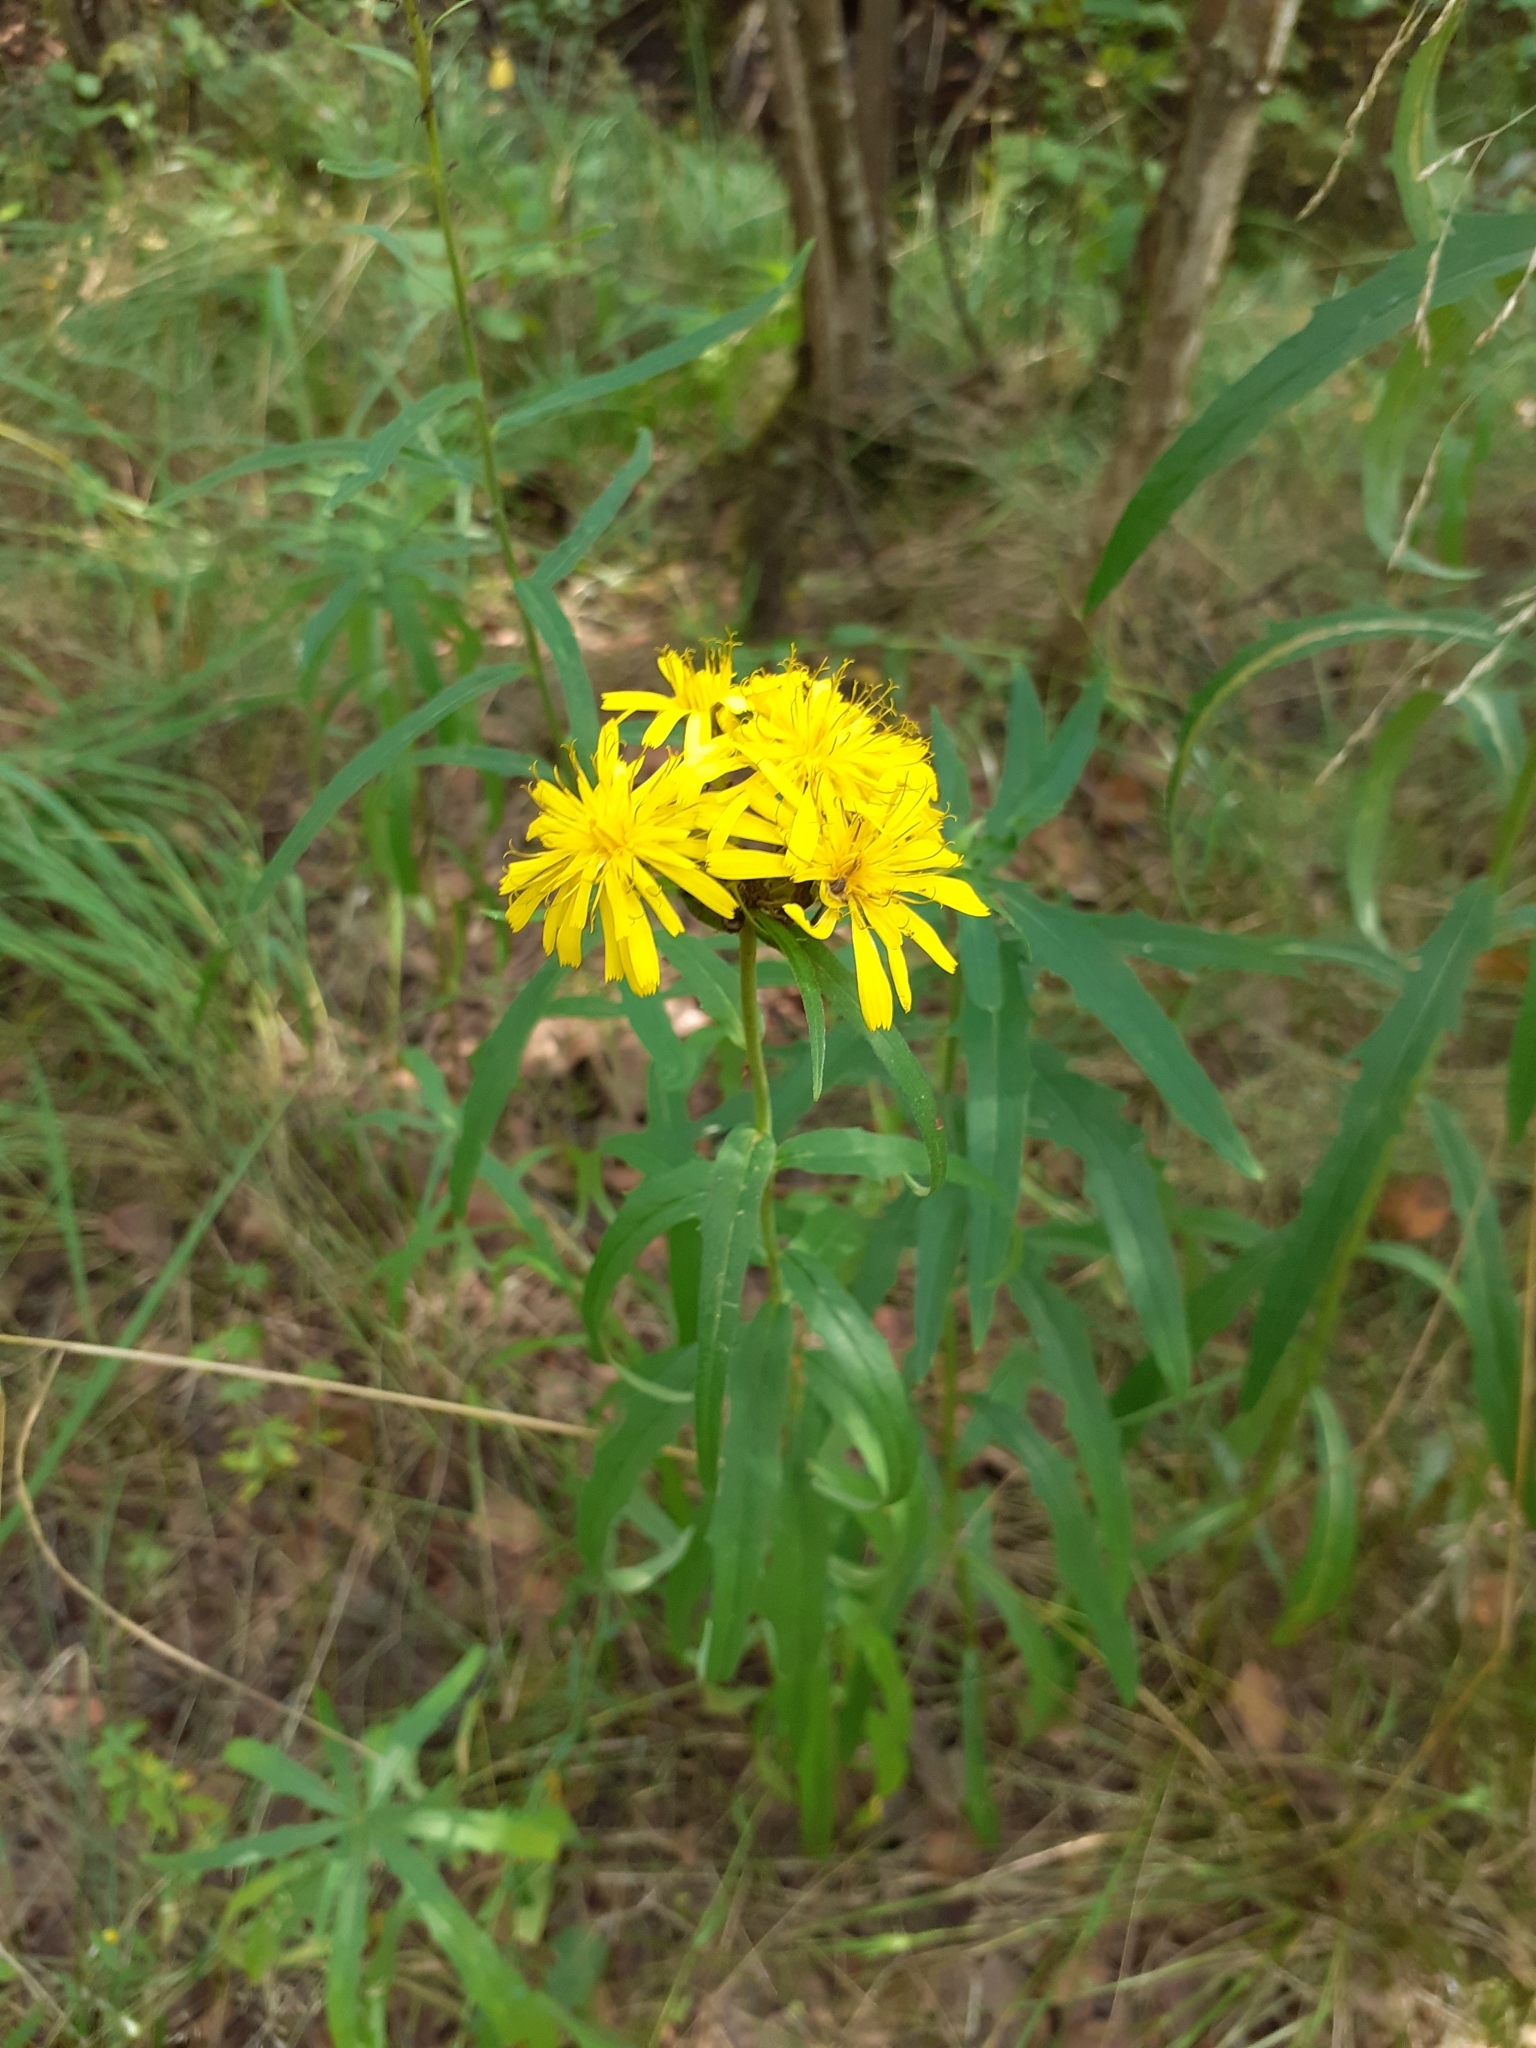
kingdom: Plantae
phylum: Tracheophyta
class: Magnoliopsida
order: Asterales
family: Asteraceae
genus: Hieracium
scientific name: Hieracium umbellatum
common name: Northern hawkweed
